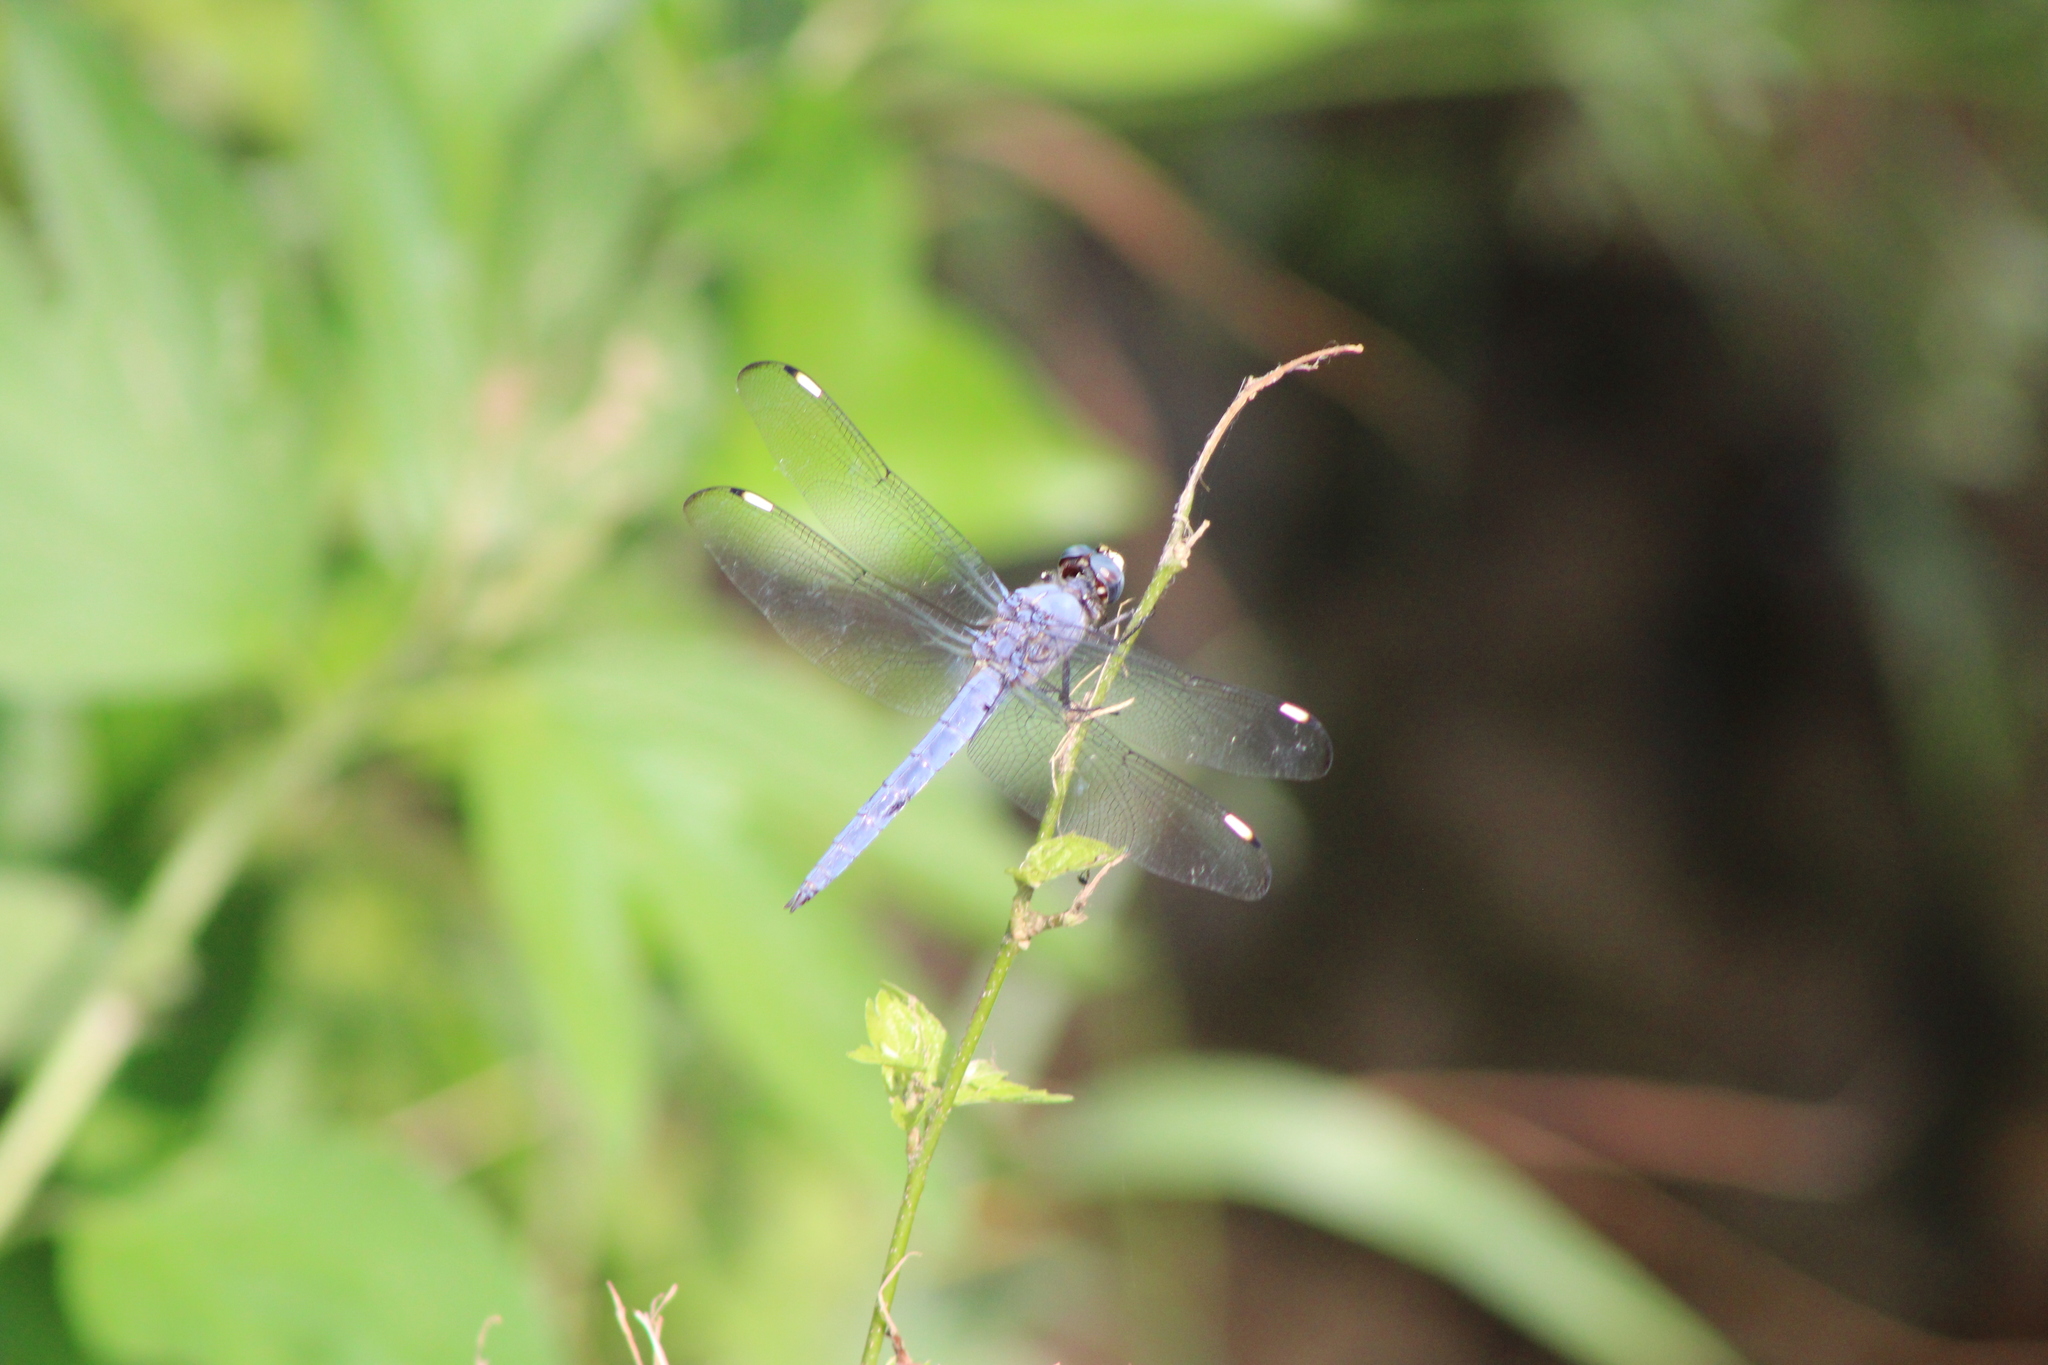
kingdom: Animalia
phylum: Arthropoda
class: Insecta
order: Odonata
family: Libellulidae
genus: Libellula
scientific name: Libellula comanche
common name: Comanche skimmer
